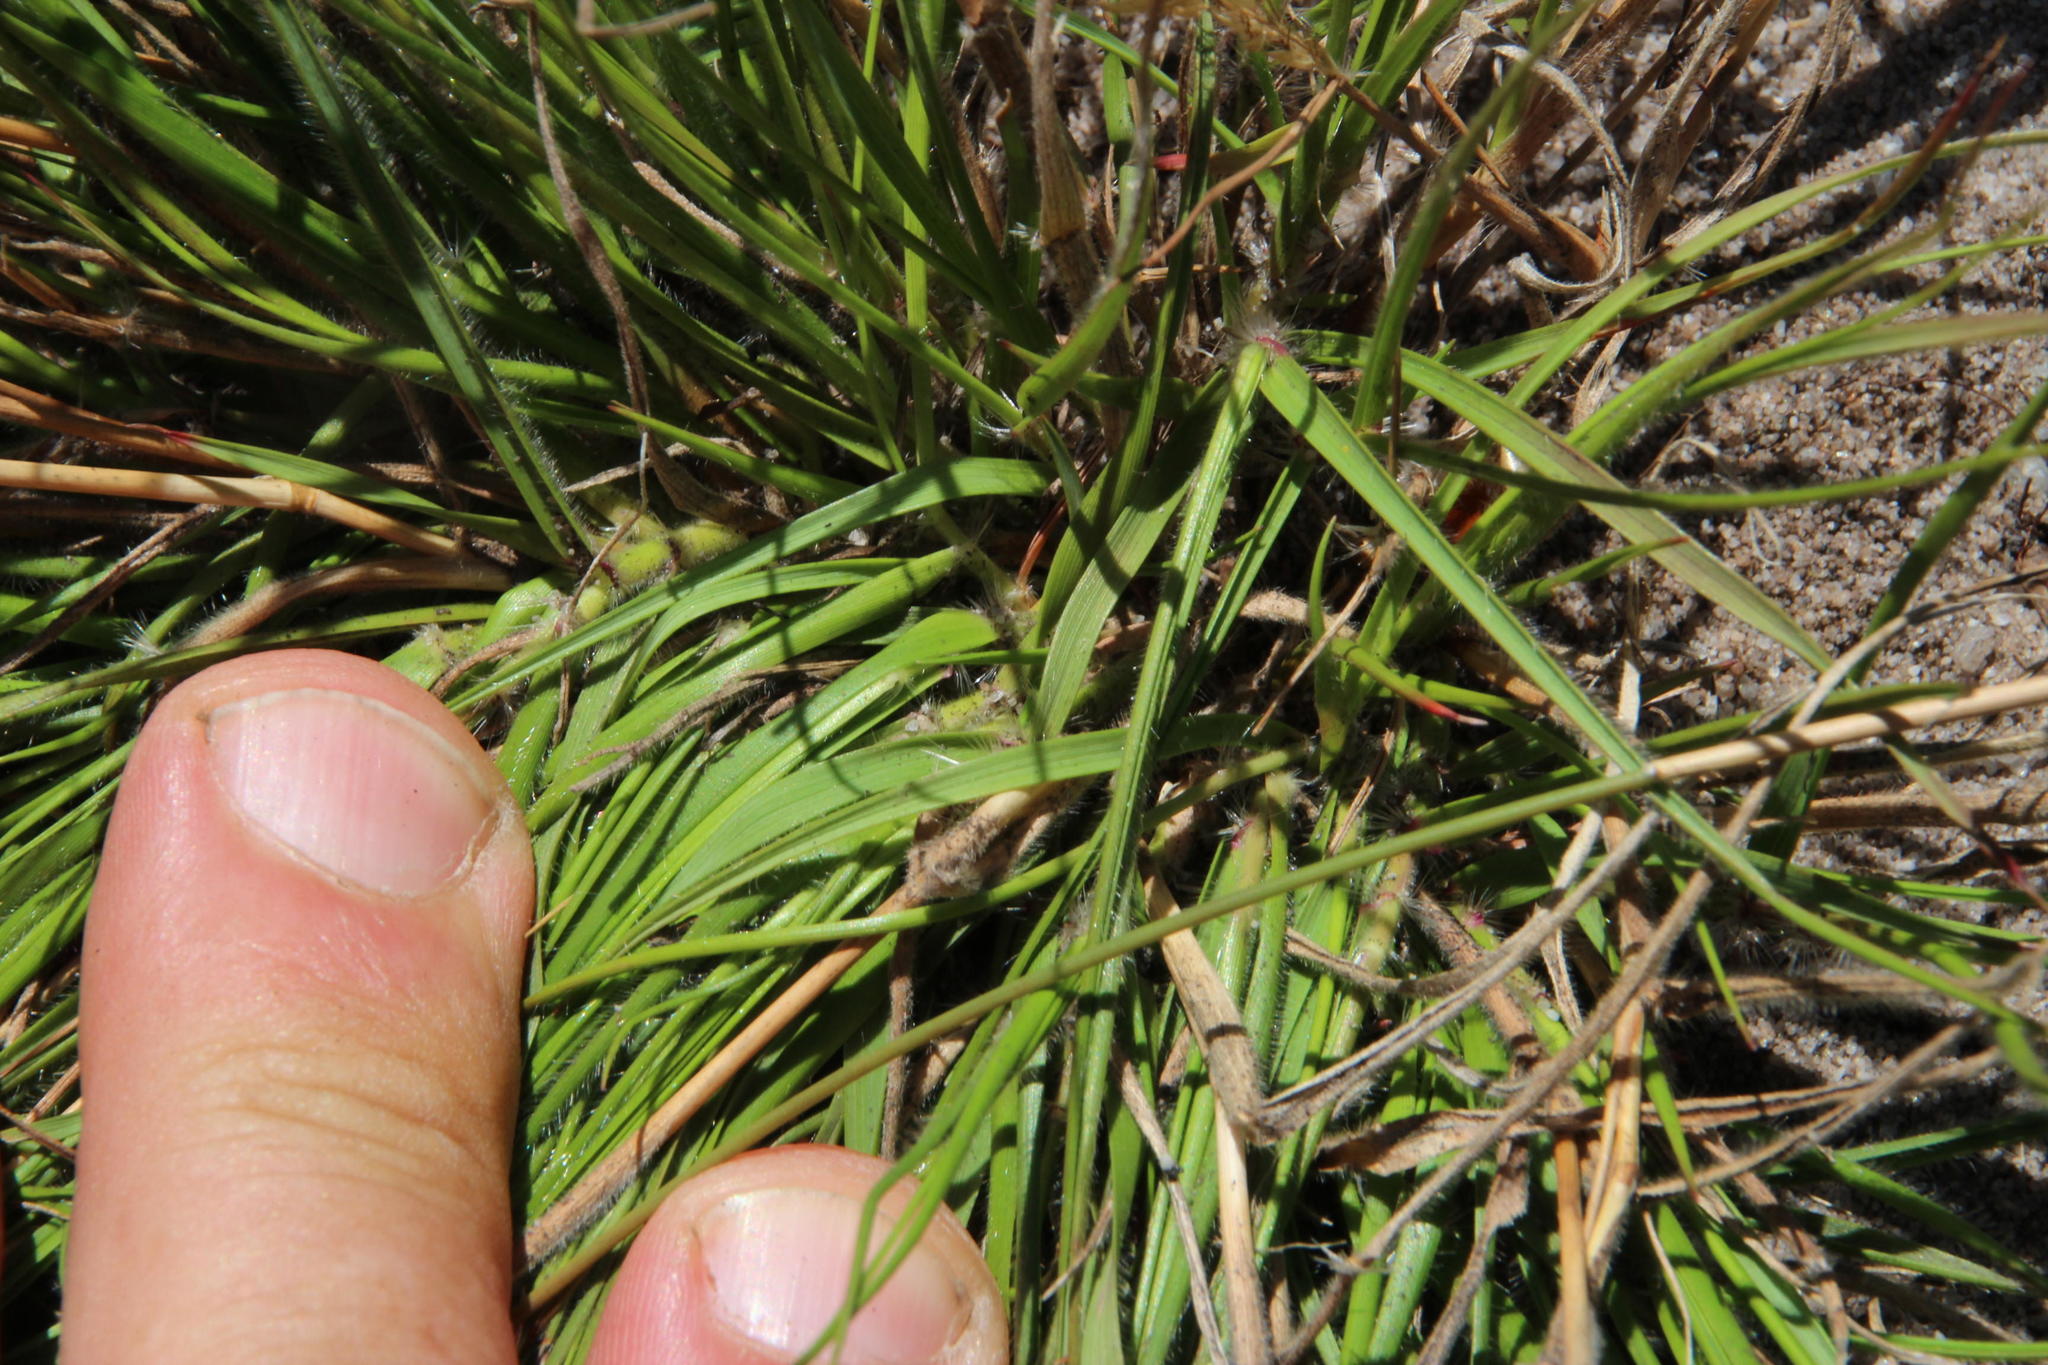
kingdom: Plantae
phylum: Tracheophyta
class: Liliopsida
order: Poales
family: Poaceae
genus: Pentameris
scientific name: Pentameris pallida
